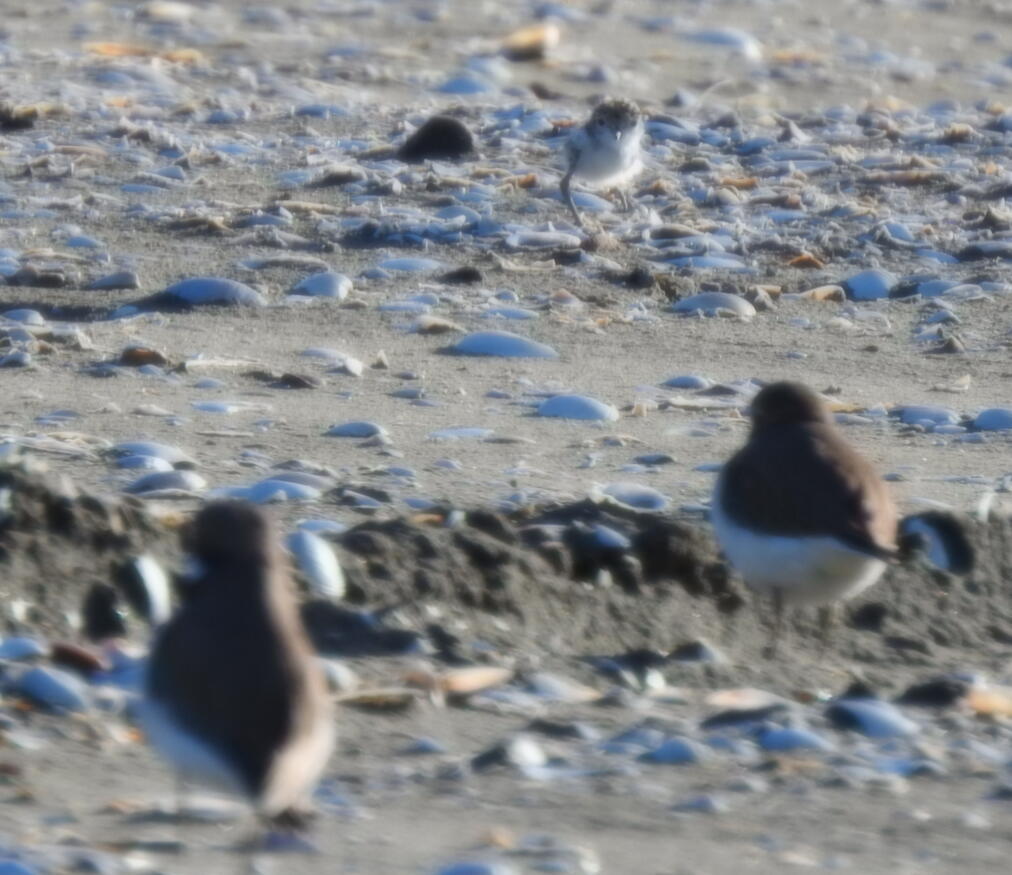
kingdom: Animalia
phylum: Chordata
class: Aves
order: Charadriiformes
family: Charadriidae
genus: Anarhynchus
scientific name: Anarhynchus
